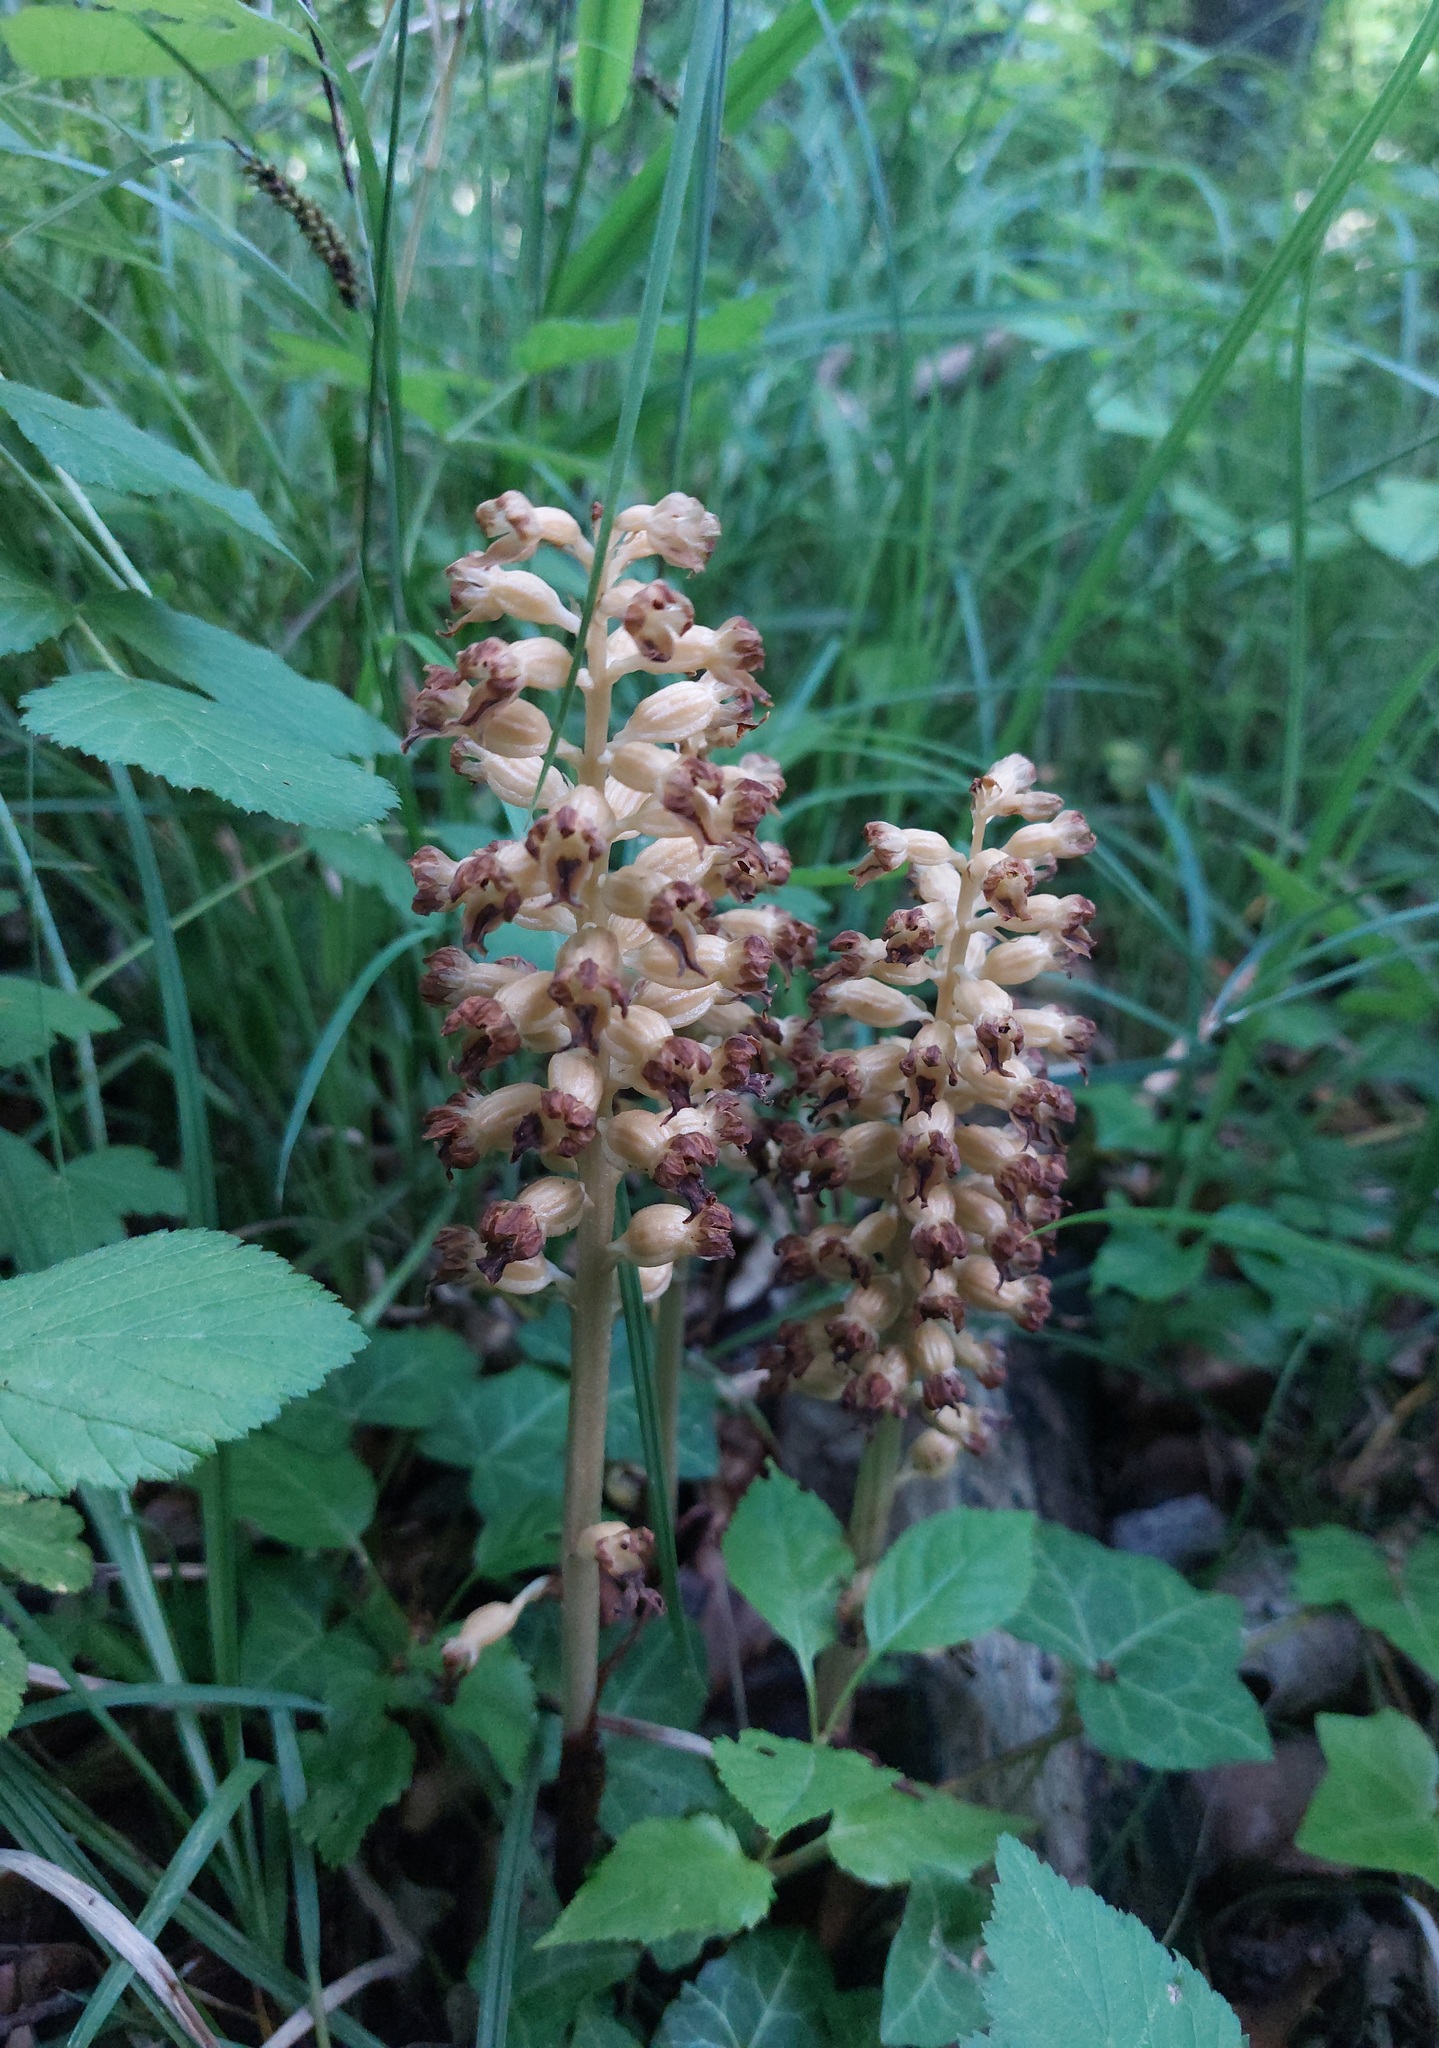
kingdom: Plantae
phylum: Tracheophyta
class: Liliopsida
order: Asparagales
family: Orchidaceae
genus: Neottia
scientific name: Neottia nidus-avis
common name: Bird's-nest orchid
